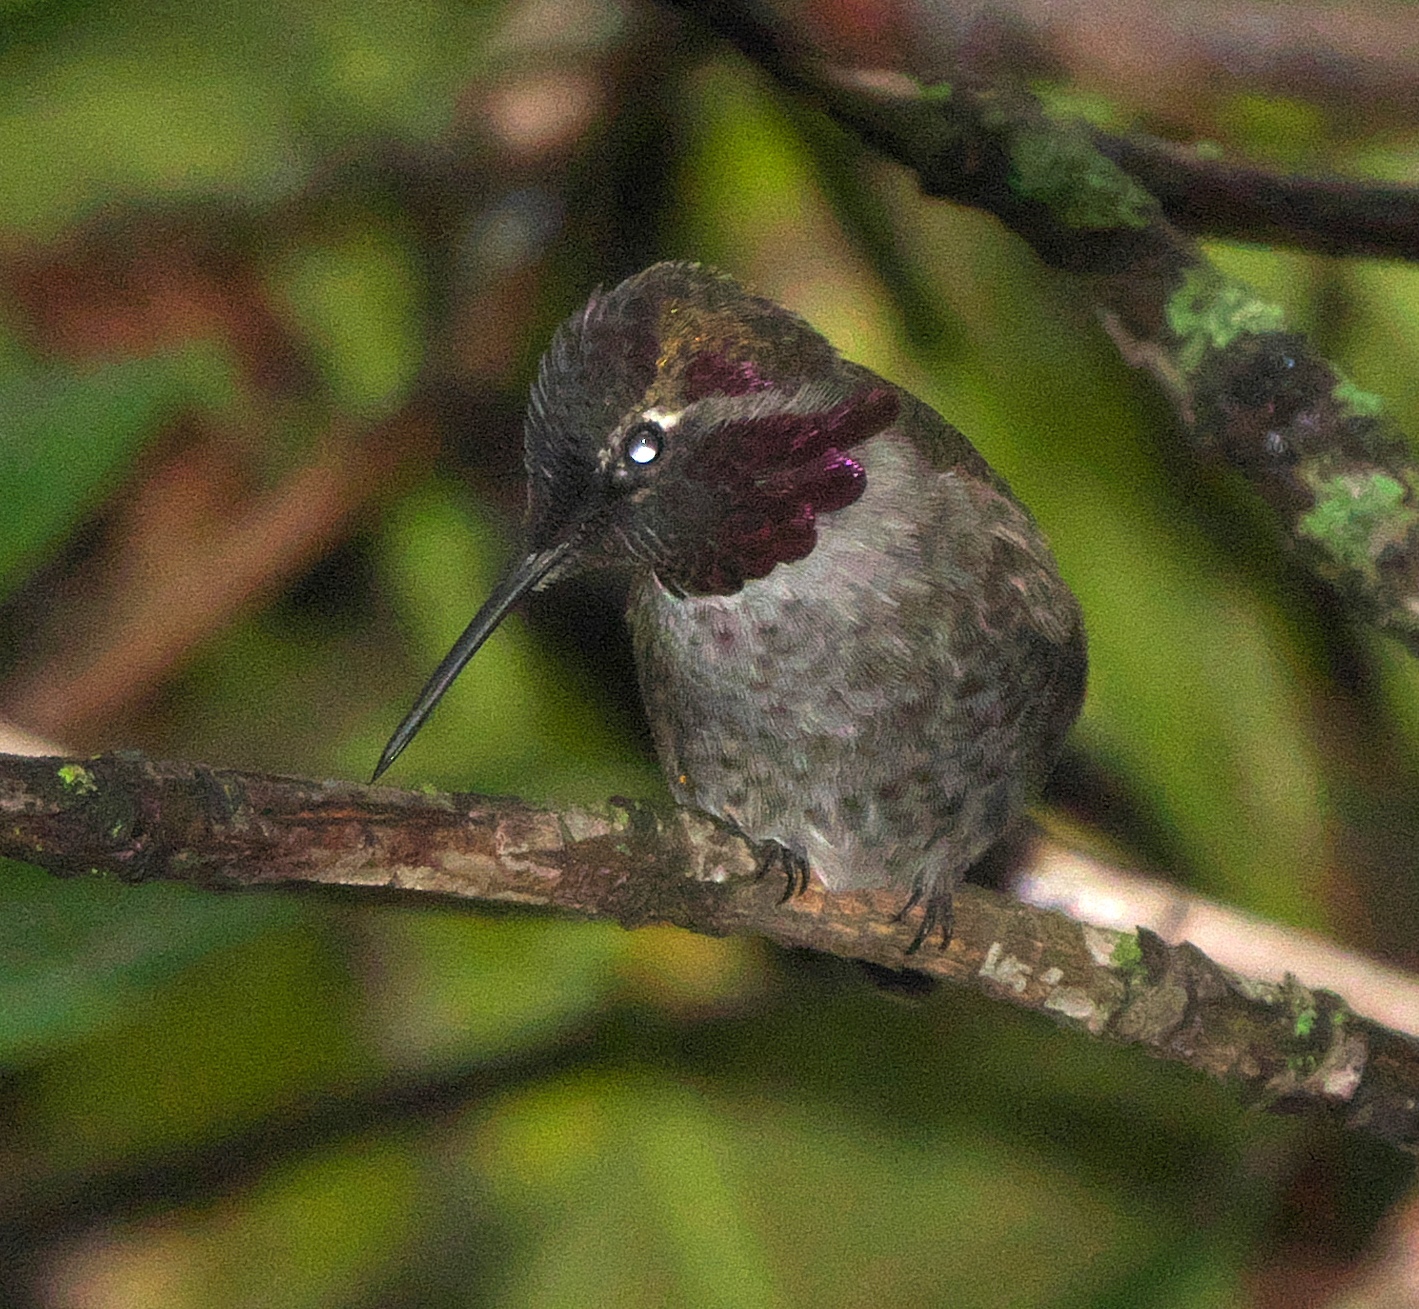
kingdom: Animalia
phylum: Chordata
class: Aves
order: Apodiformes
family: Trochilidae
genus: Calypte
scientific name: Calypte anna
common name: Anna's hummingbird
